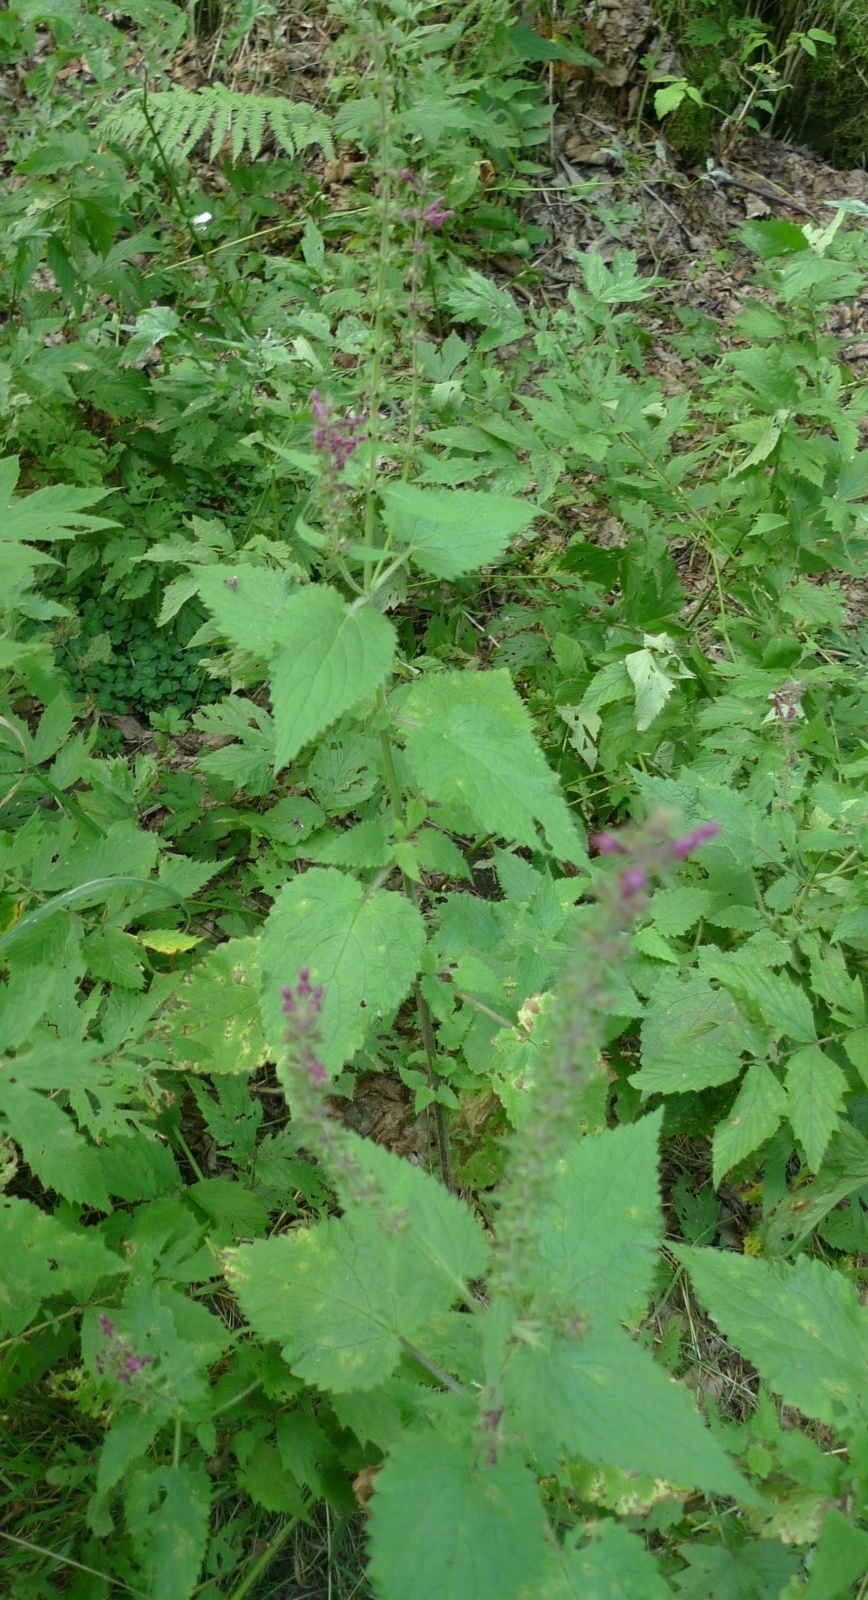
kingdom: Plantae
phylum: Tracheophyta
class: Magnoliopsida
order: Lamiales
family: Lamiaceae
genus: Stachys
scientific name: Stachys sylvatica
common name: Hedge woundwort
